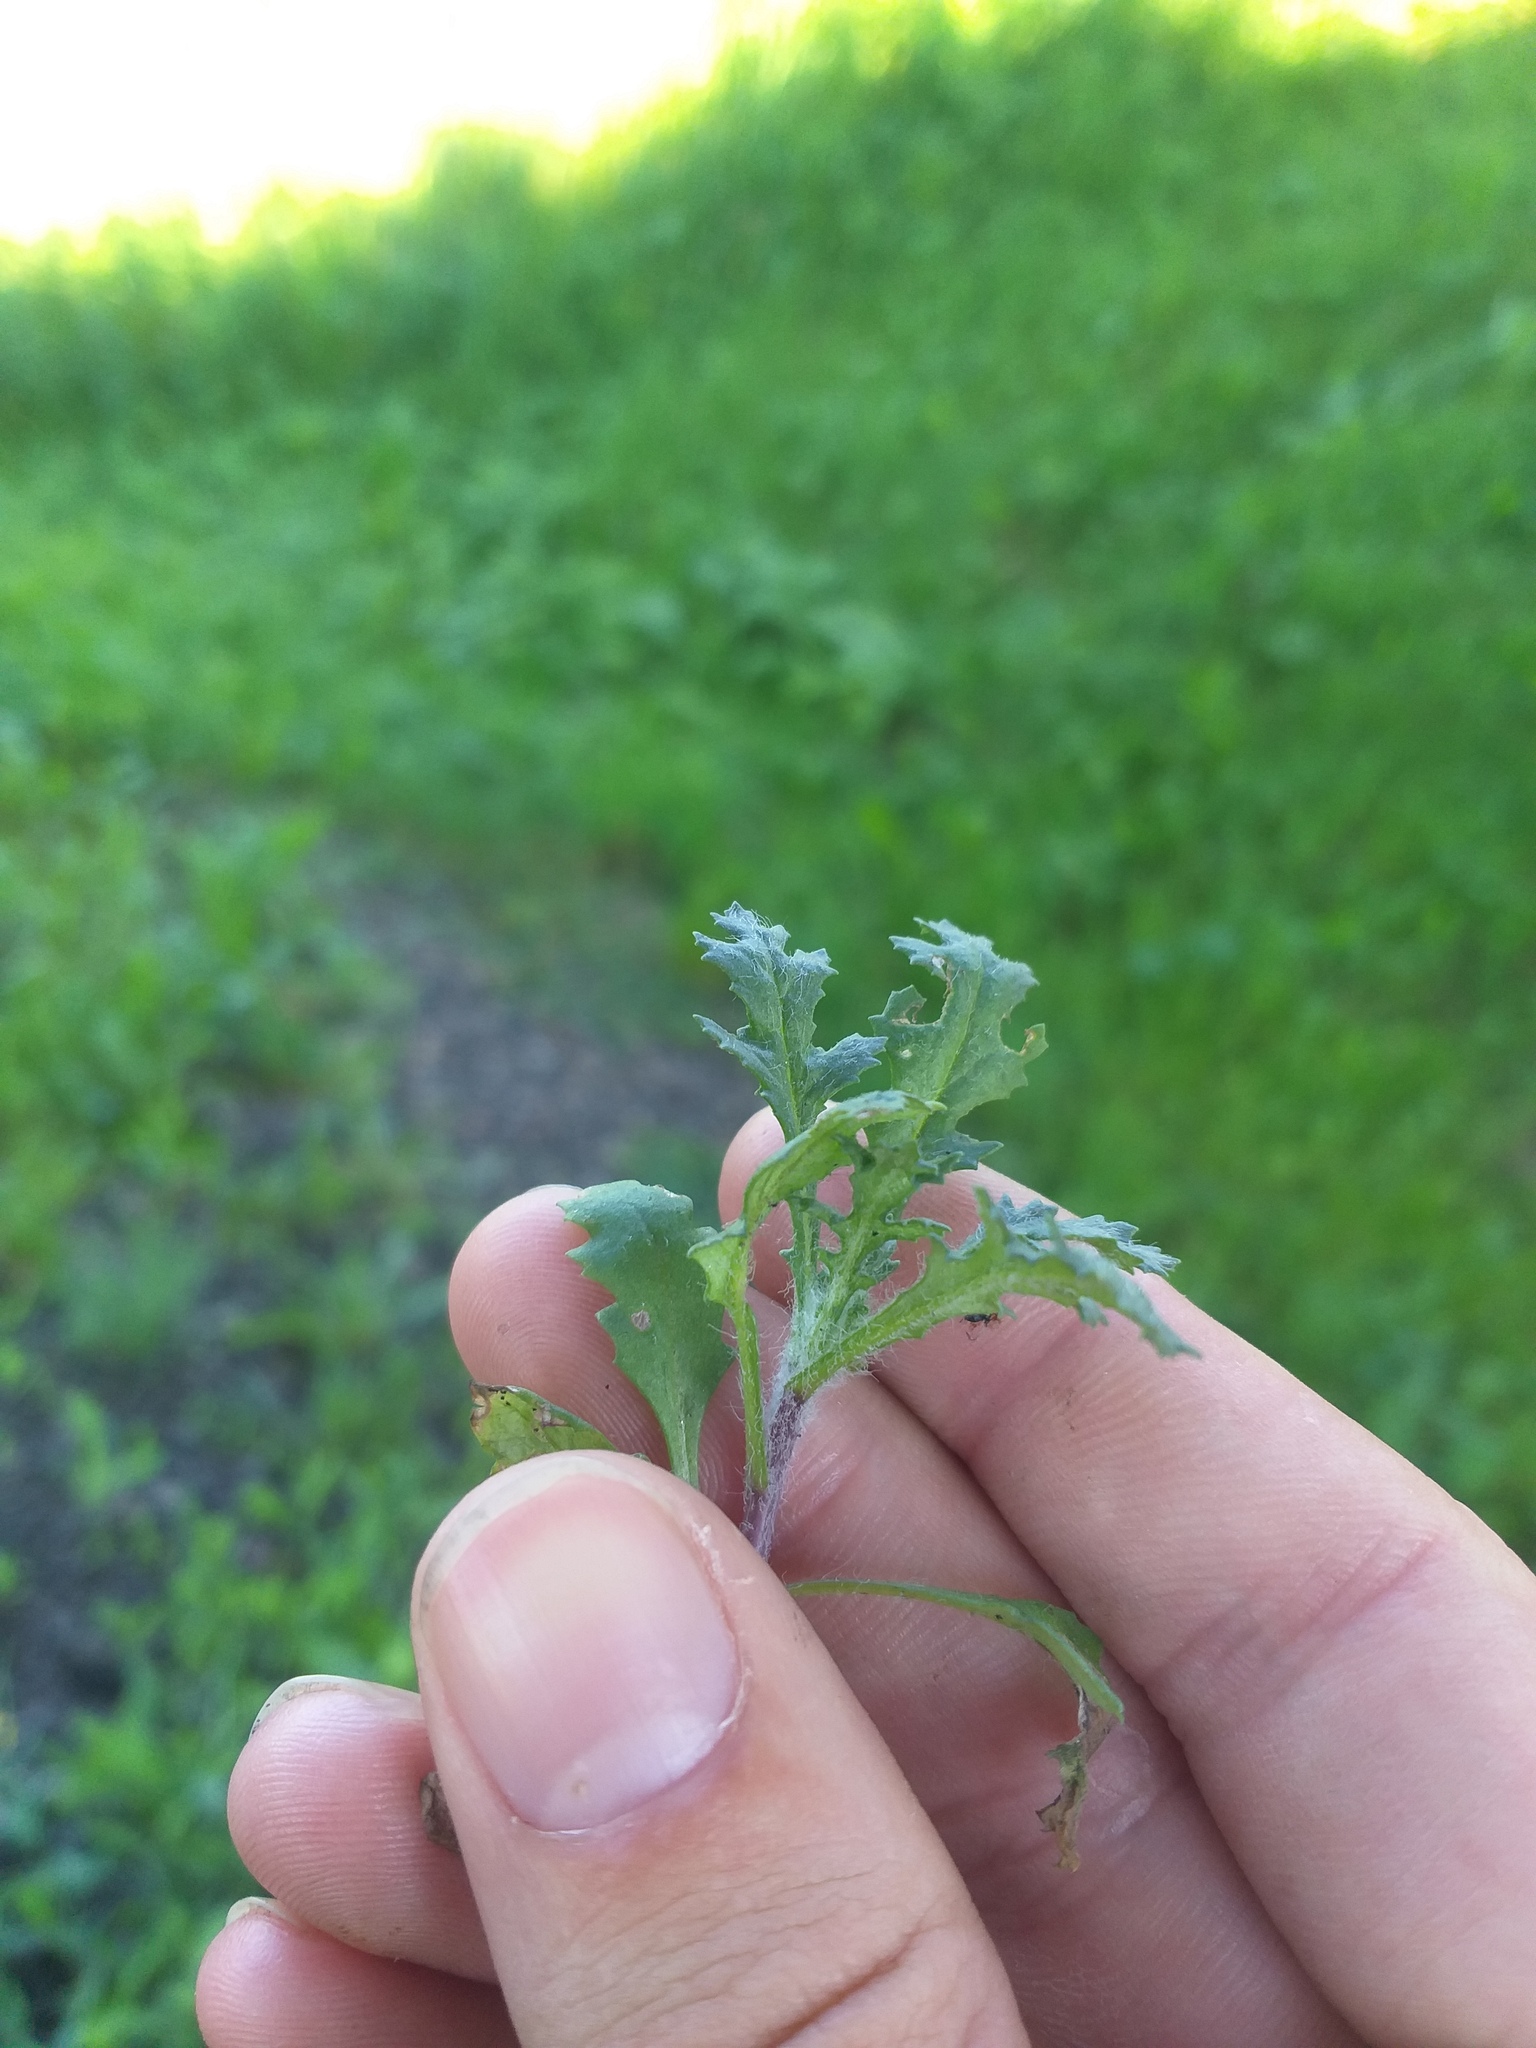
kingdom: Plantae
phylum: Tracheophyta
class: Magnoliopsida
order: Asterales
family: Asteraceae
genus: Senecio
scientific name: Senecio vulgaris
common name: Old-man-in-the-spring
